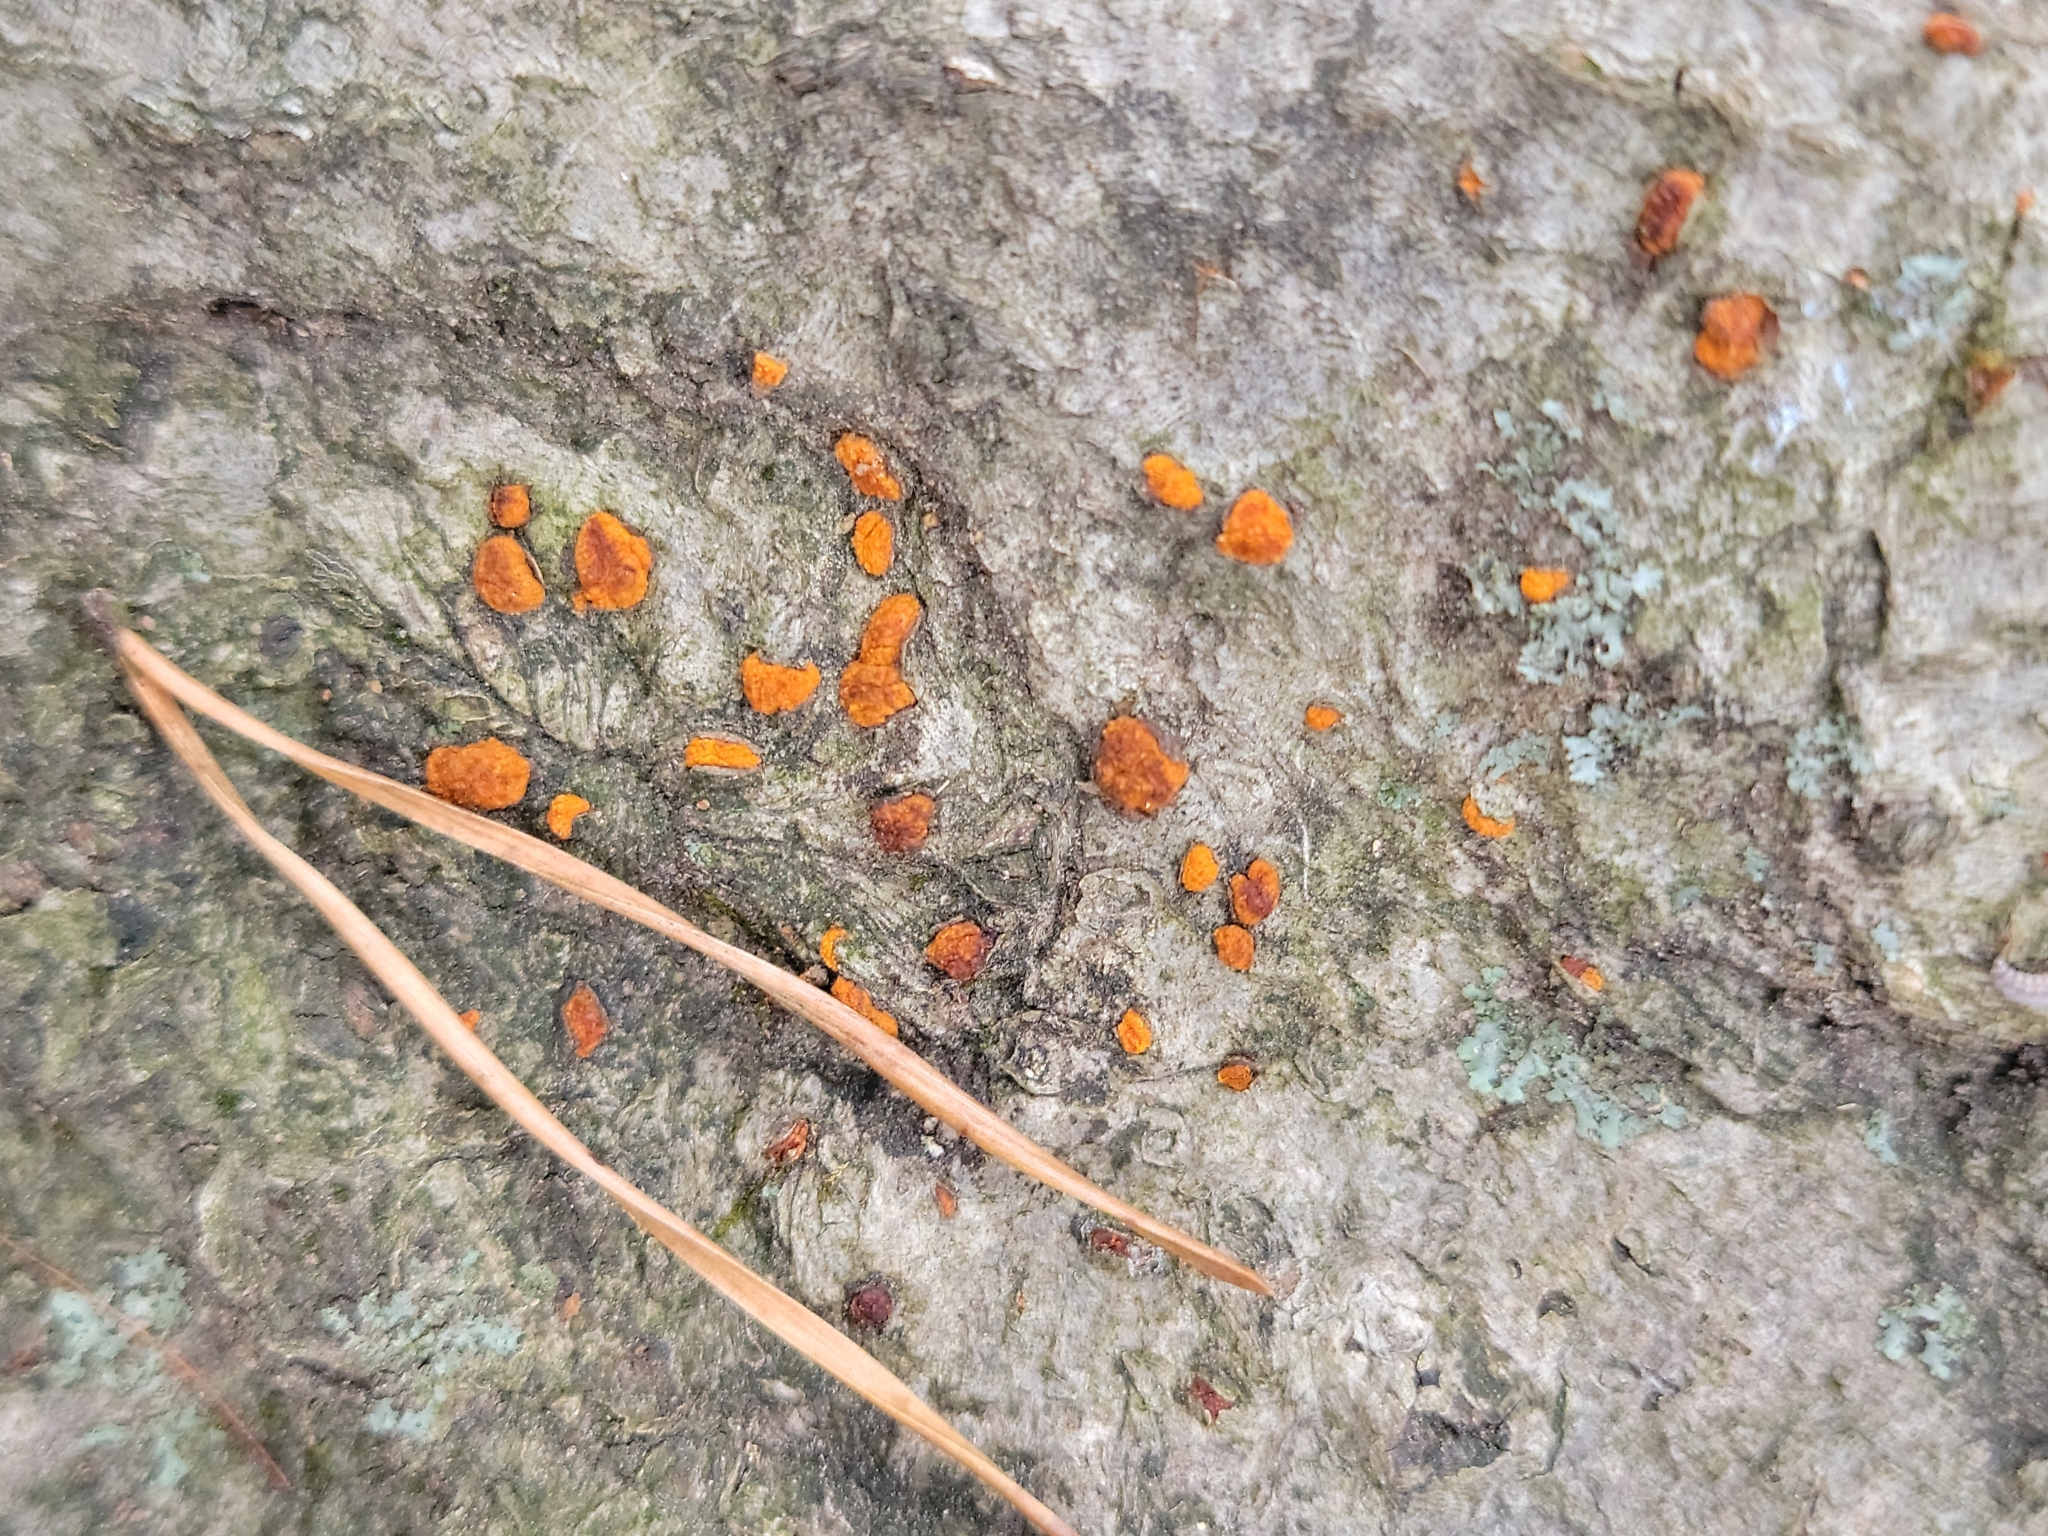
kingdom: Fungi
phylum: Ascomycota
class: Sordariomycetes
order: Diaporthales
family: Cryphonectriaceae
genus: Amphilogia
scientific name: Amphilogia gyrosa
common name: Orange hobnail canker
